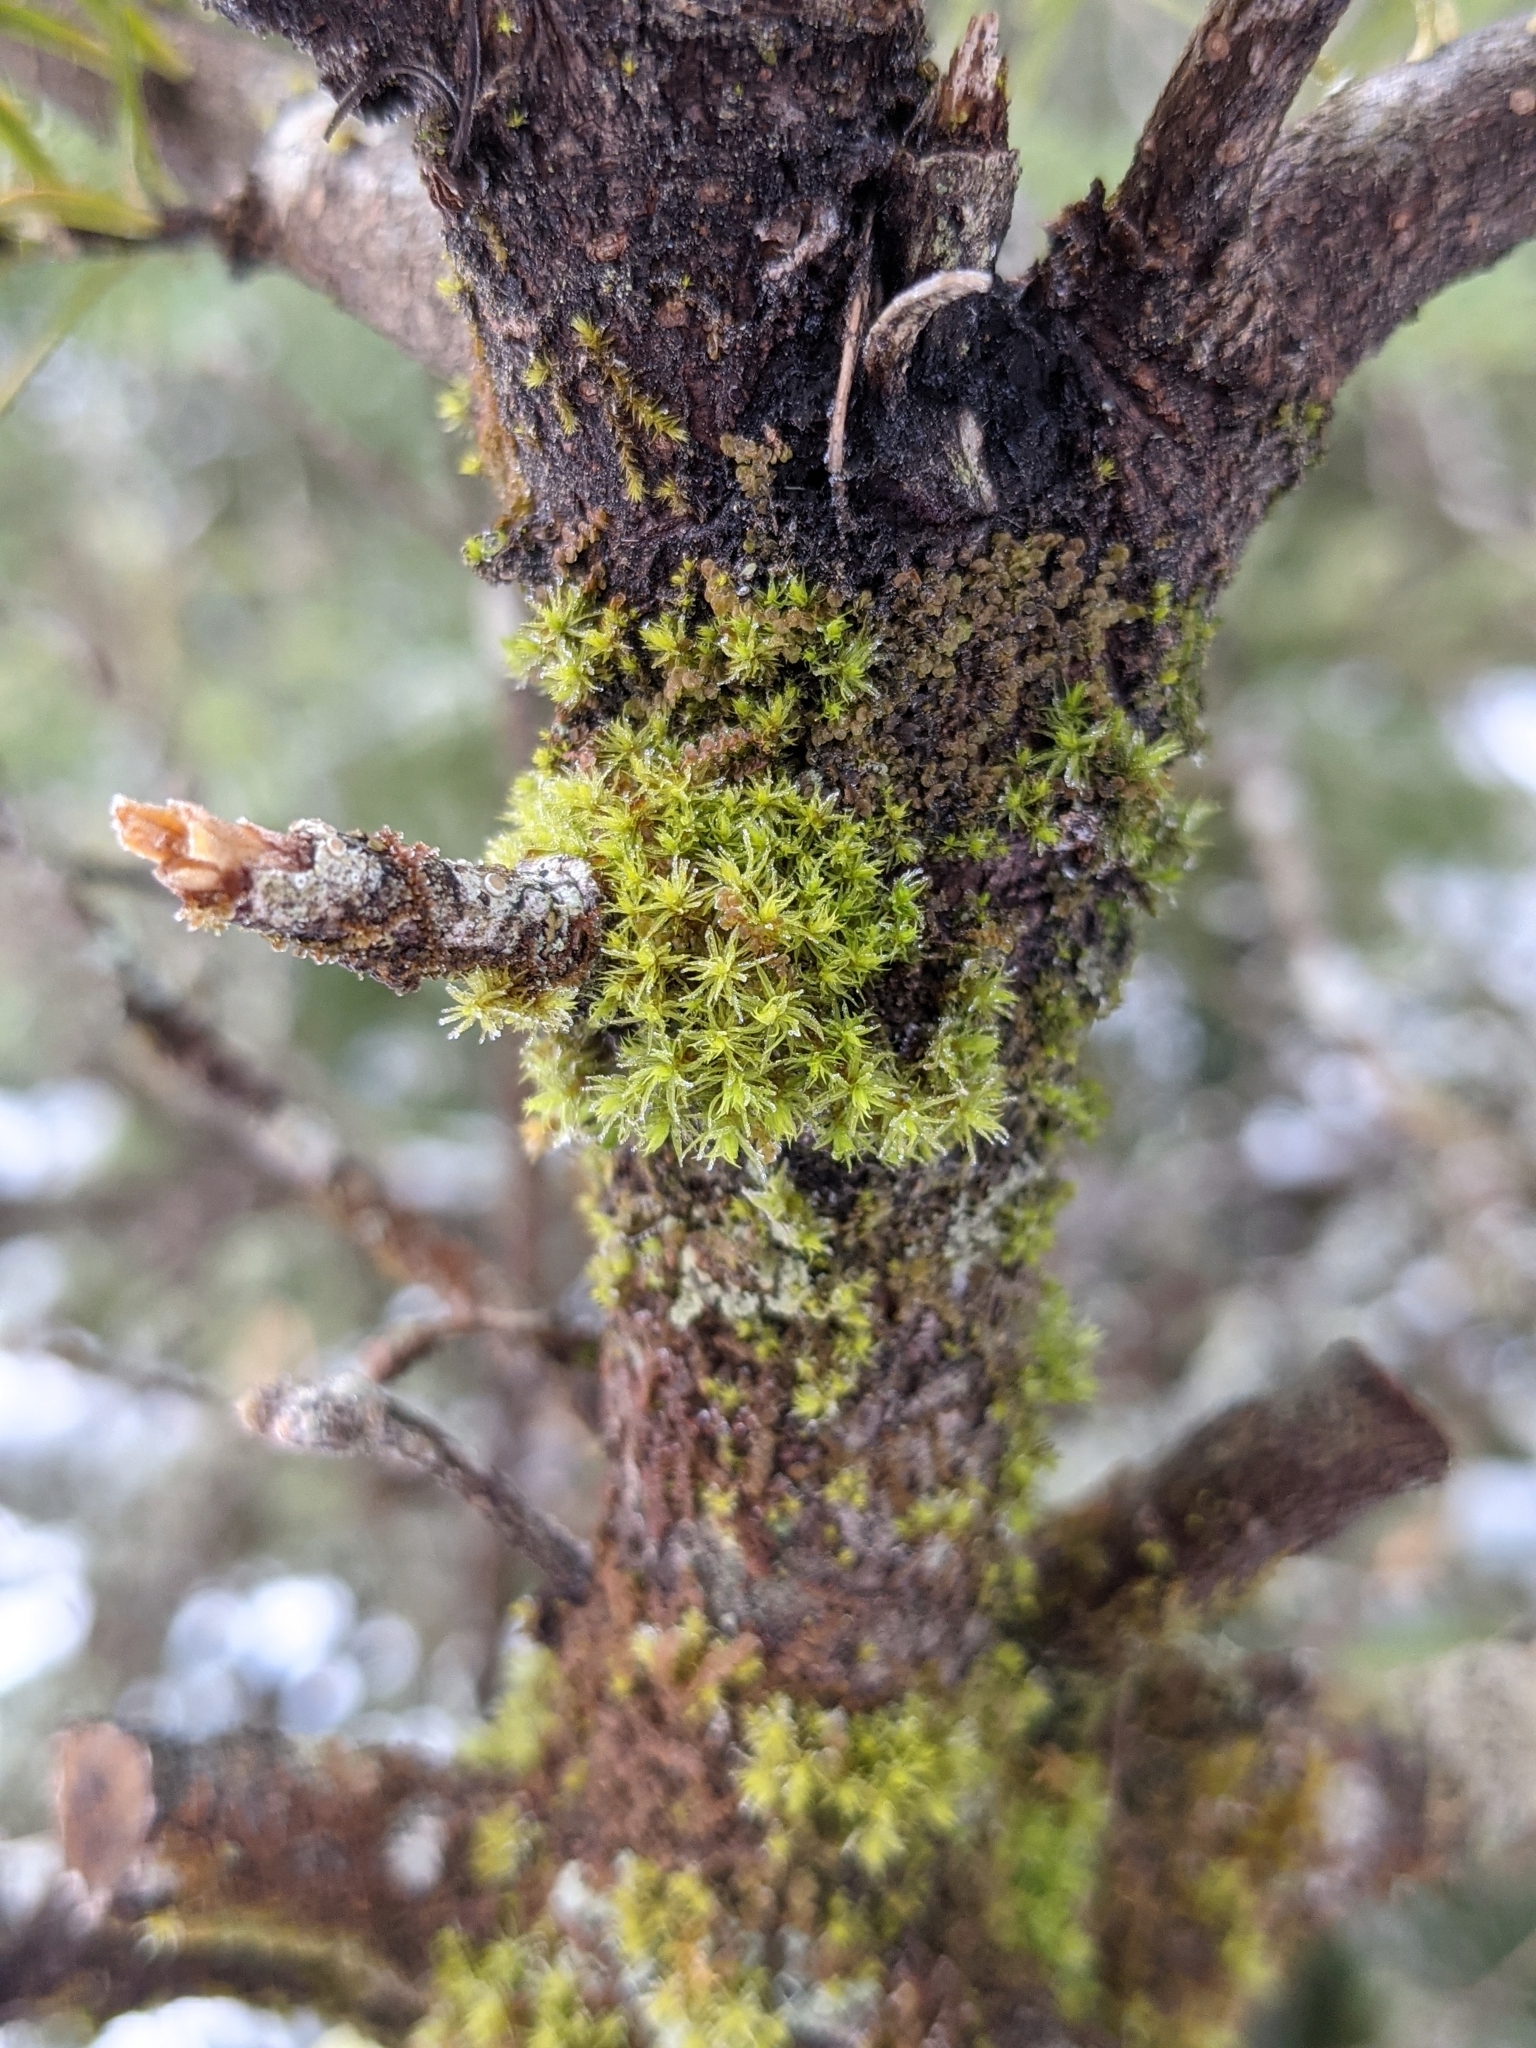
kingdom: Plantae
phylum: Bryophyta
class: Bryopsida
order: Orthotrichales
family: Orthotrichaceae
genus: Ulota
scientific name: Ulota crispa
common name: Crisped pincushion moss
